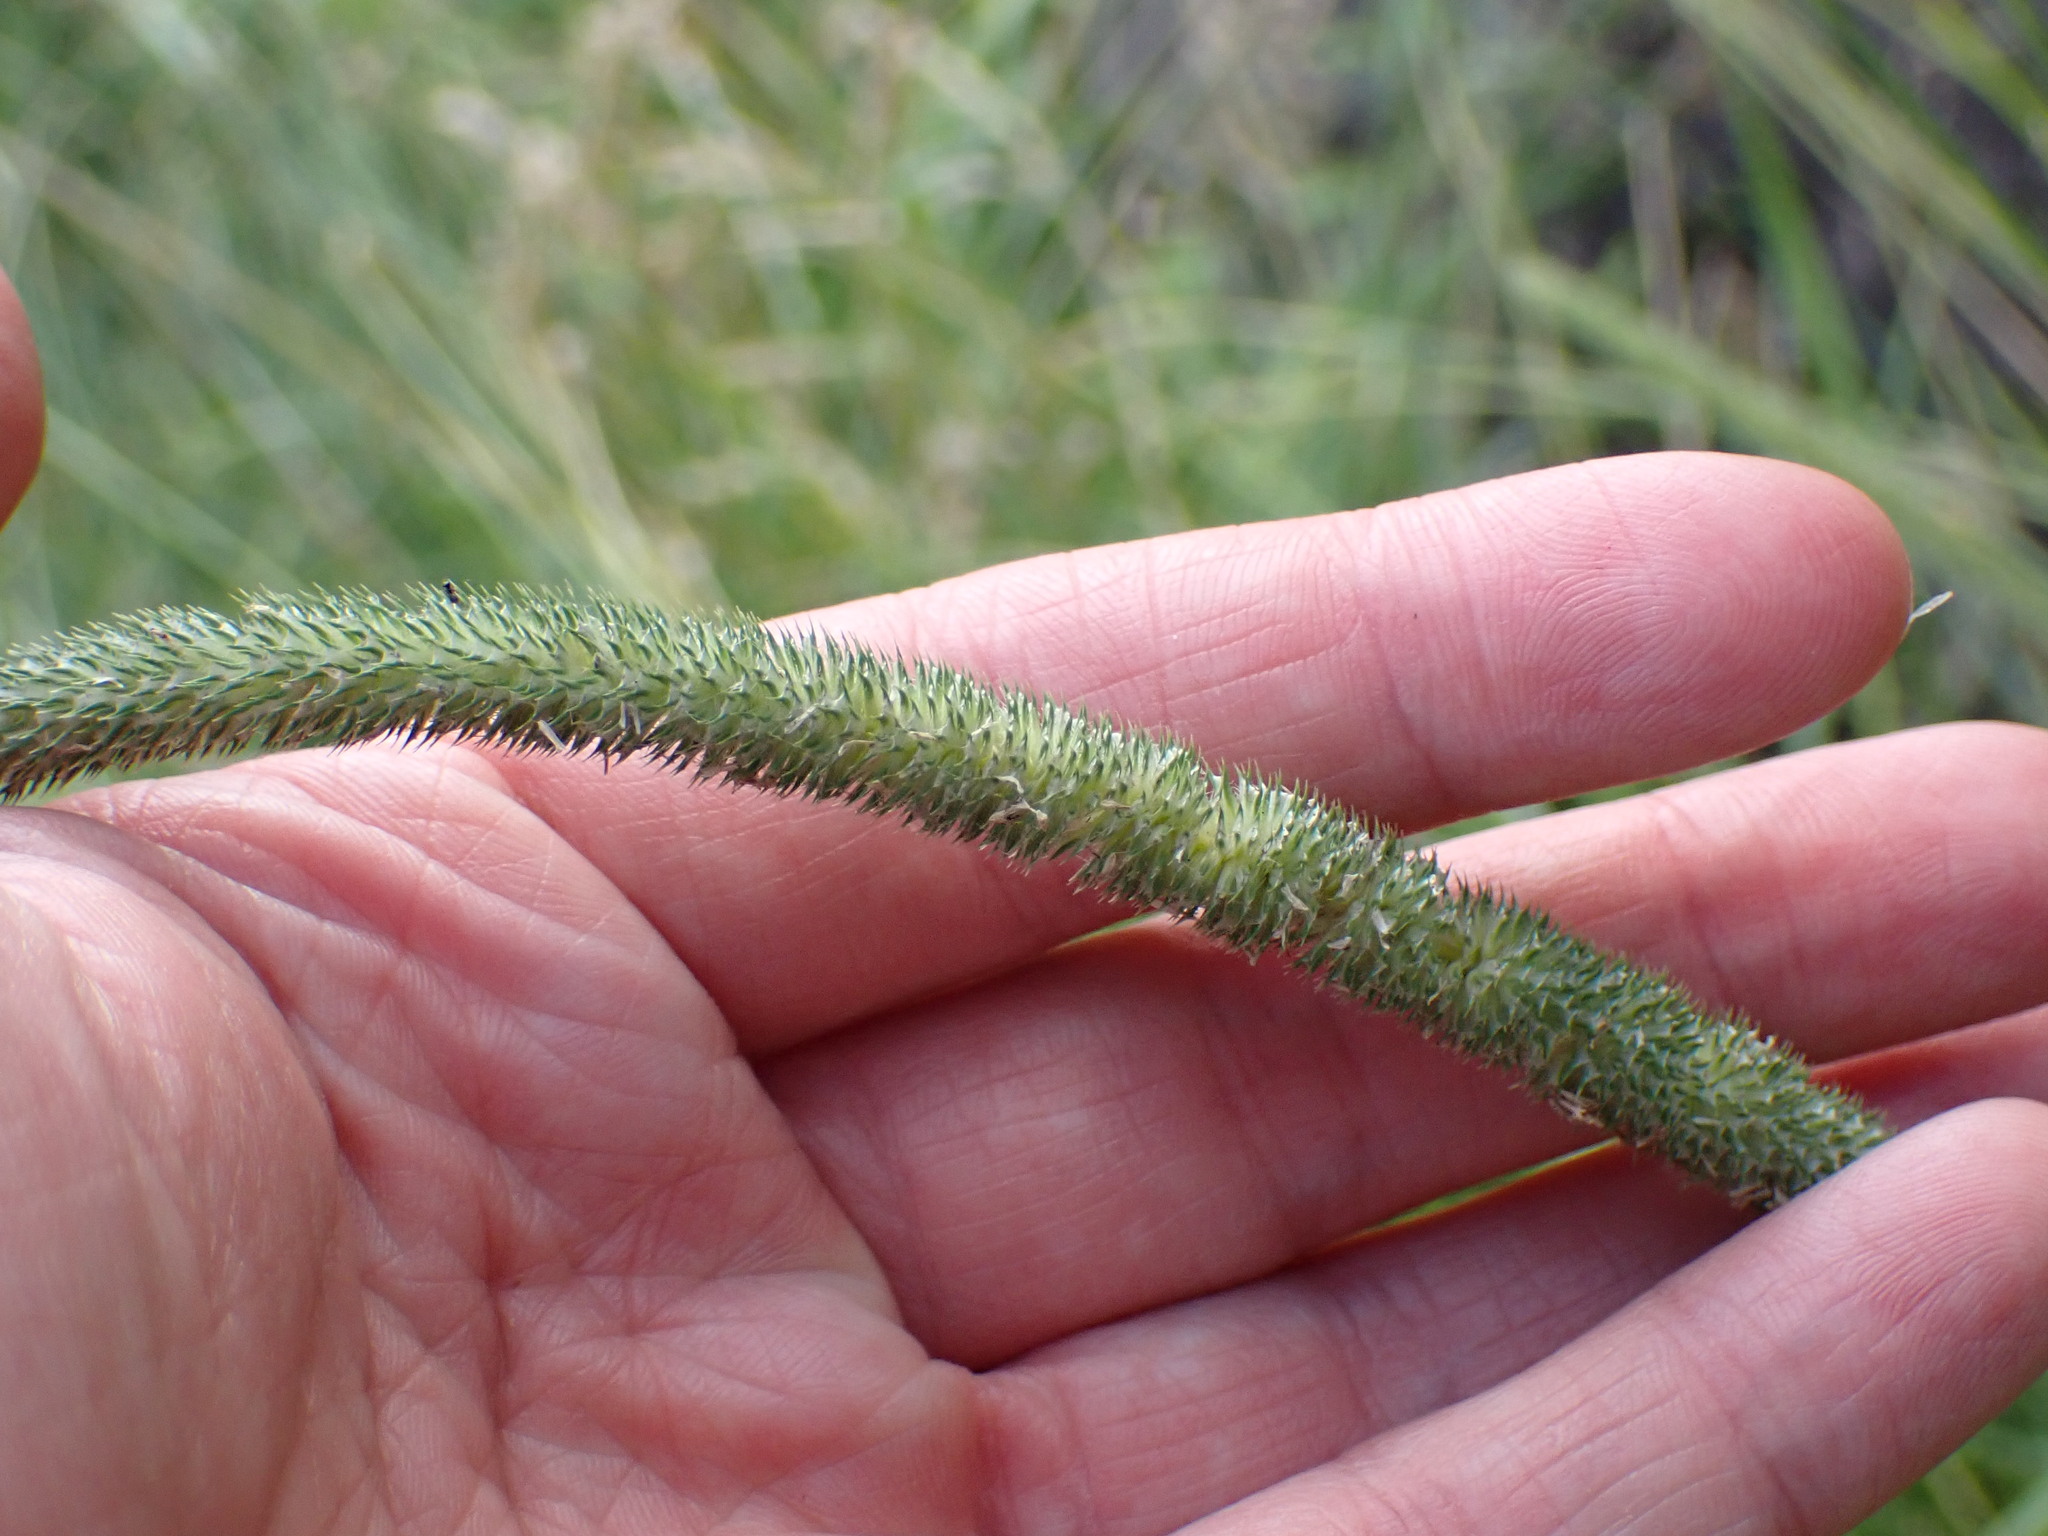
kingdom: Plantae
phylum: Tracheophyta
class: Liliopsida
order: Poales
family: Poaceae
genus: Phleum
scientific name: Phleum pratense
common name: Timothy grass
